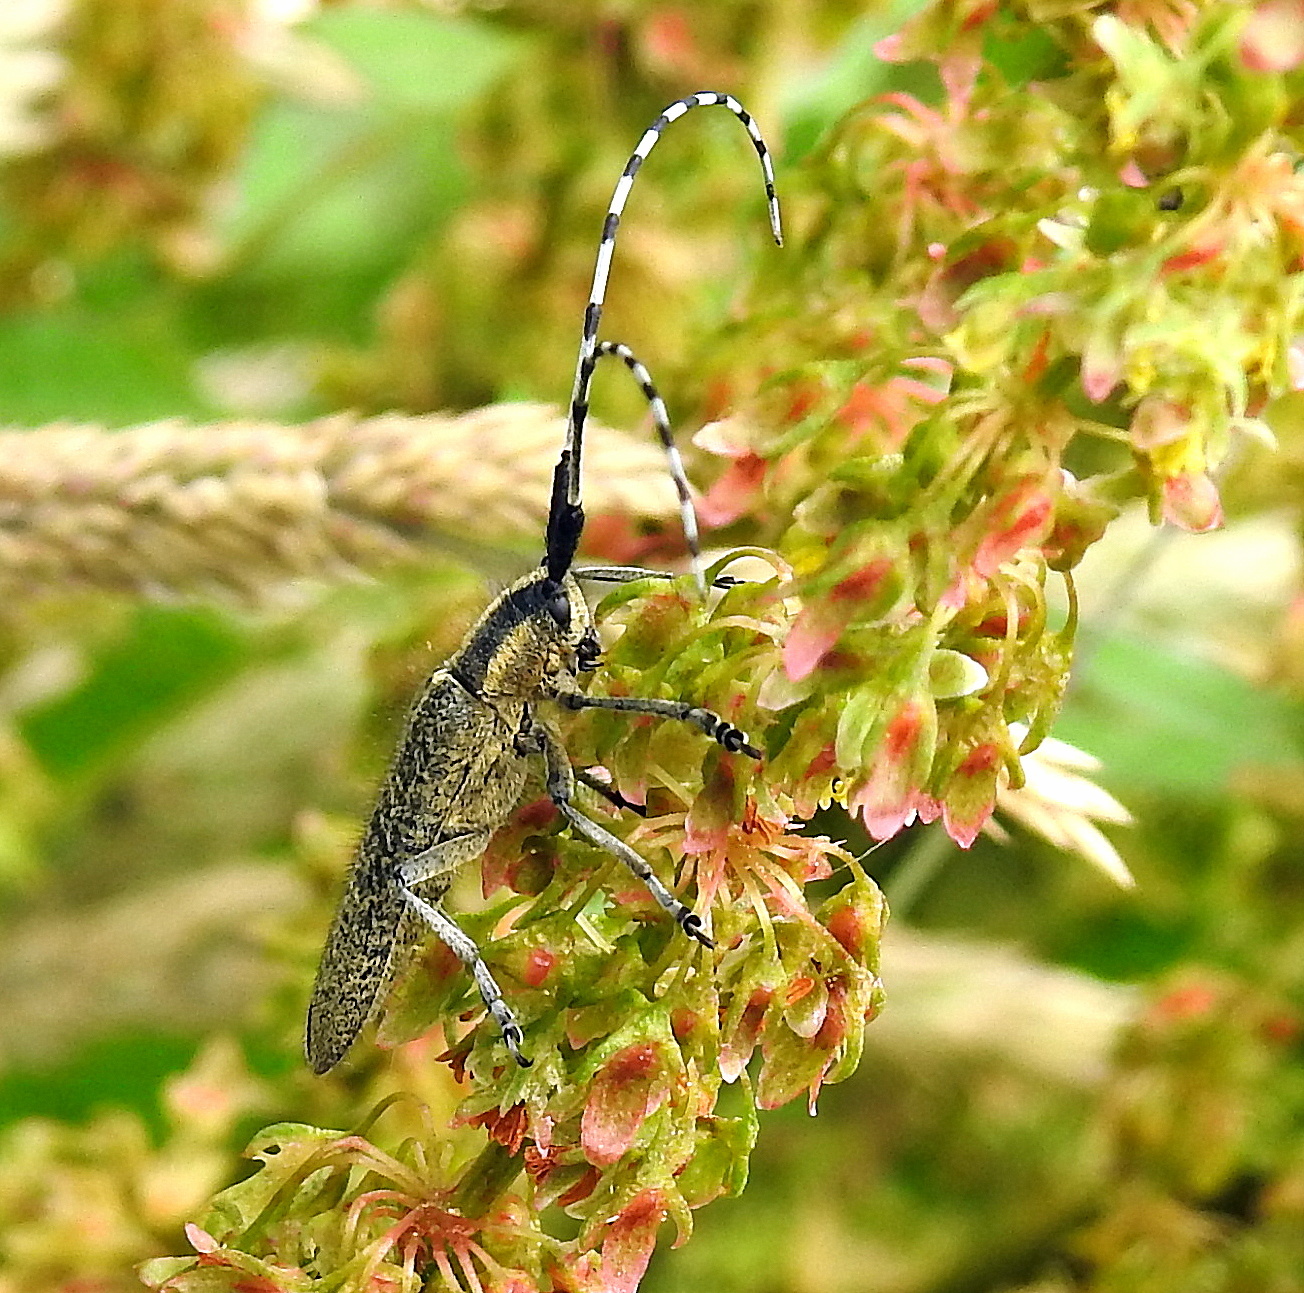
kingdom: Animalia
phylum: Arthropoda
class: Insecta
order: Coleoptera
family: Cerambycidae
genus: Agapanthia
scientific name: Agapanthia villosoviridescens
